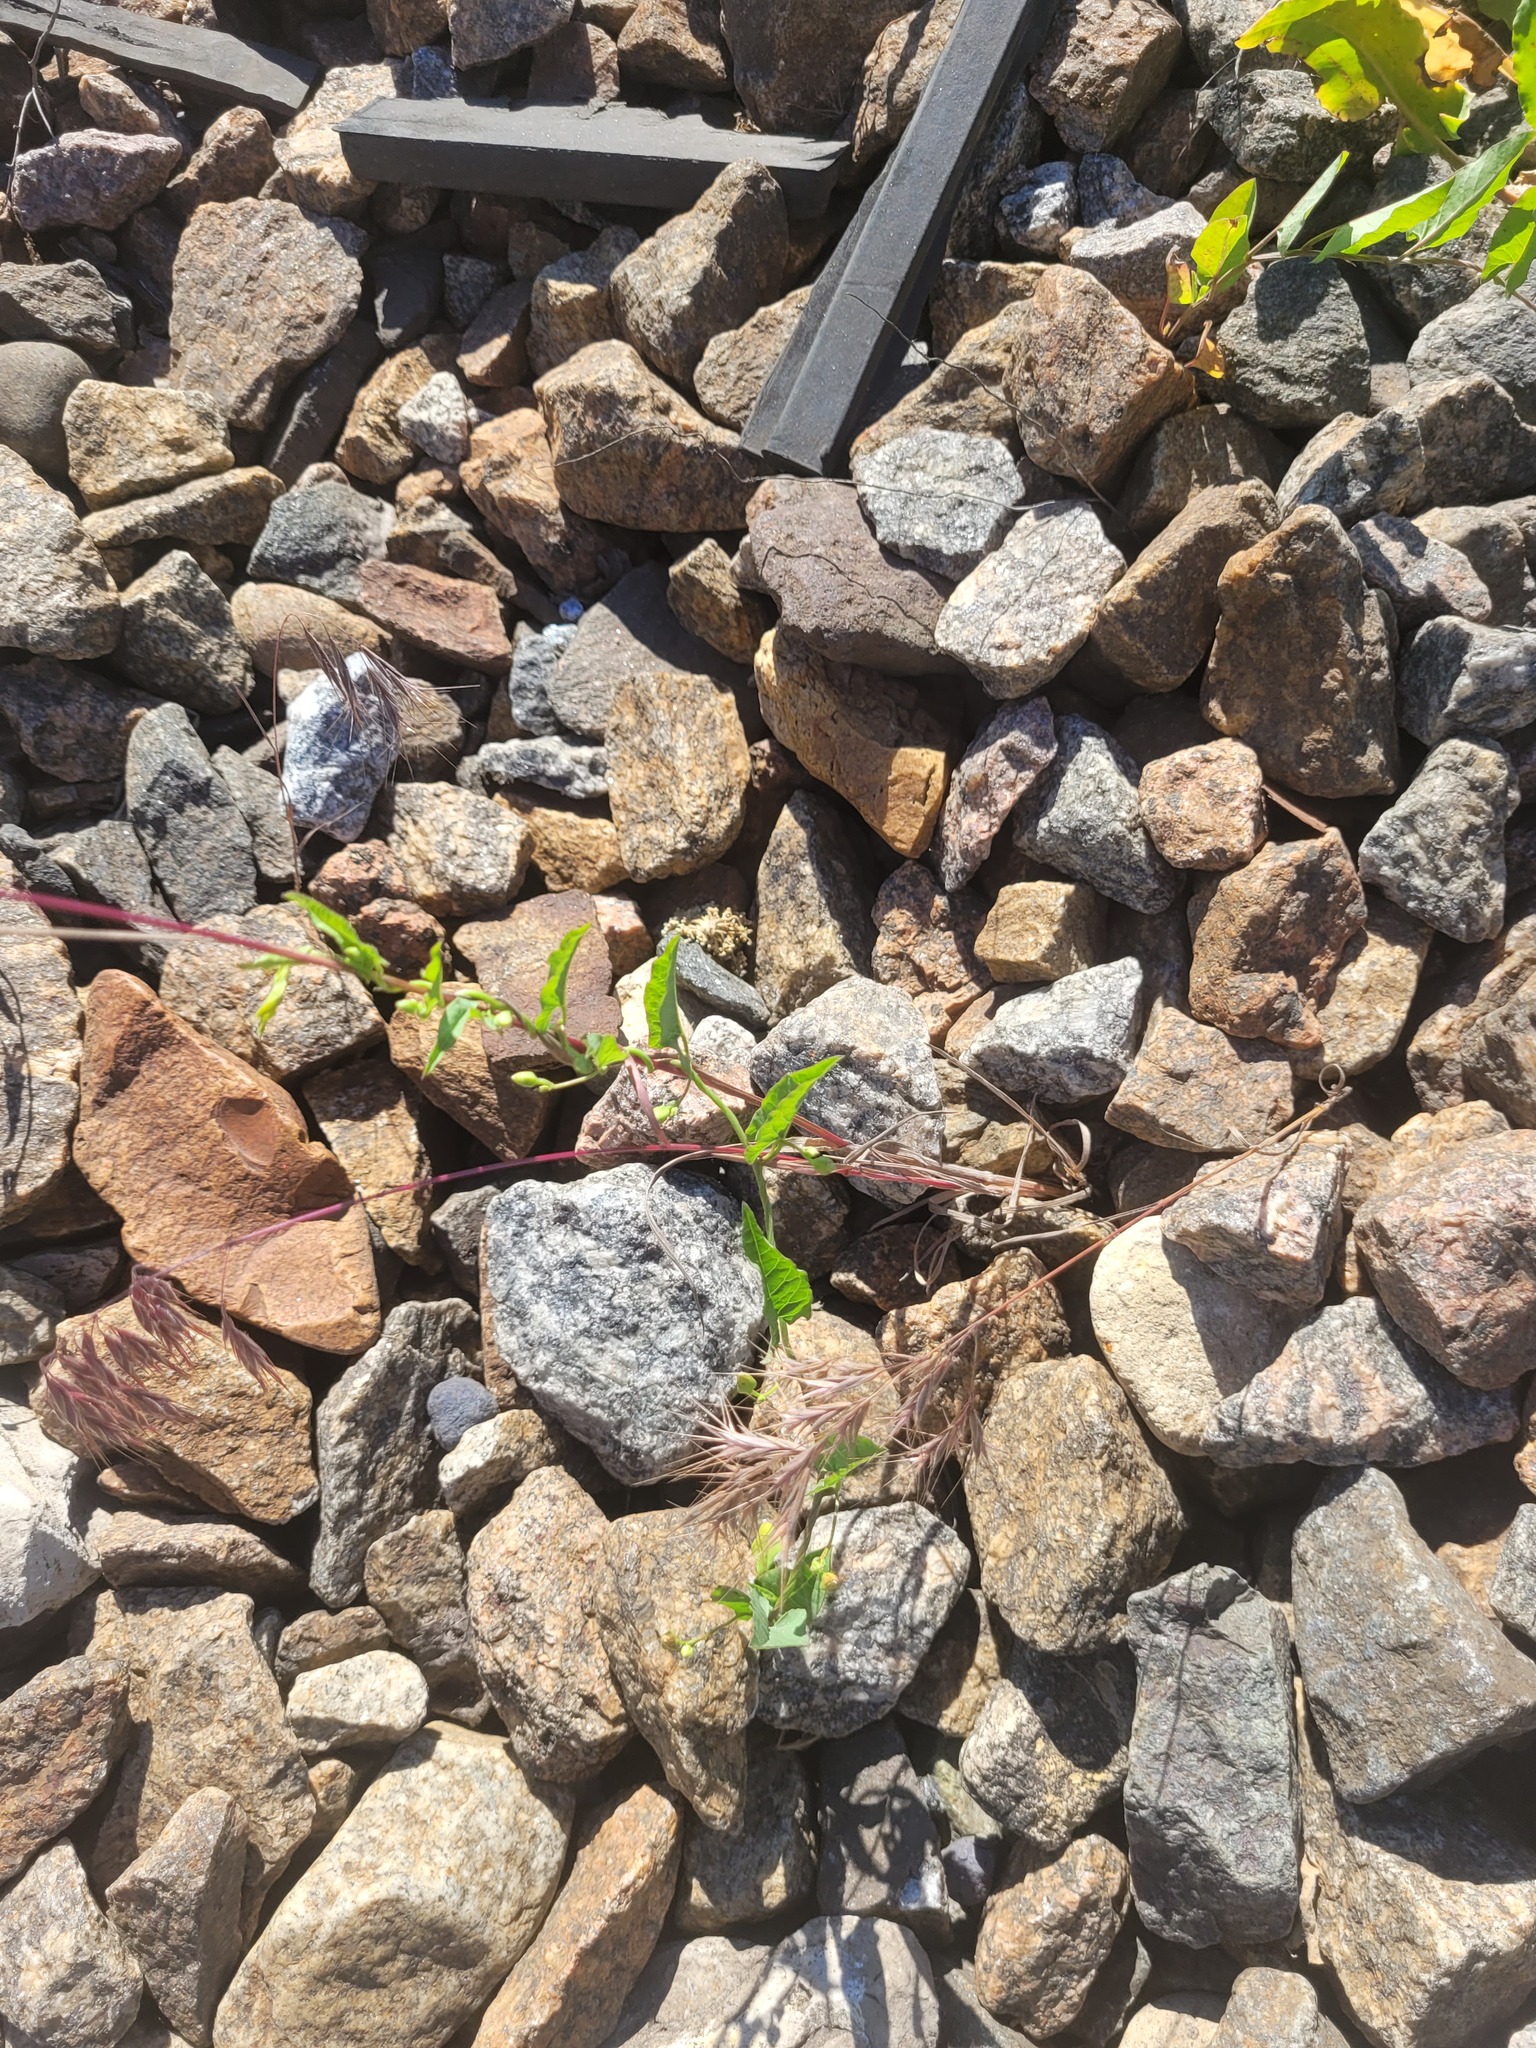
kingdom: Plantae
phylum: Tracheophyta
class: Magnoliopsida
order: Solanales
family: Convolvulaceae
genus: Convolvulus
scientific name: Convolvulus arvensis
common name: Field bindweed
